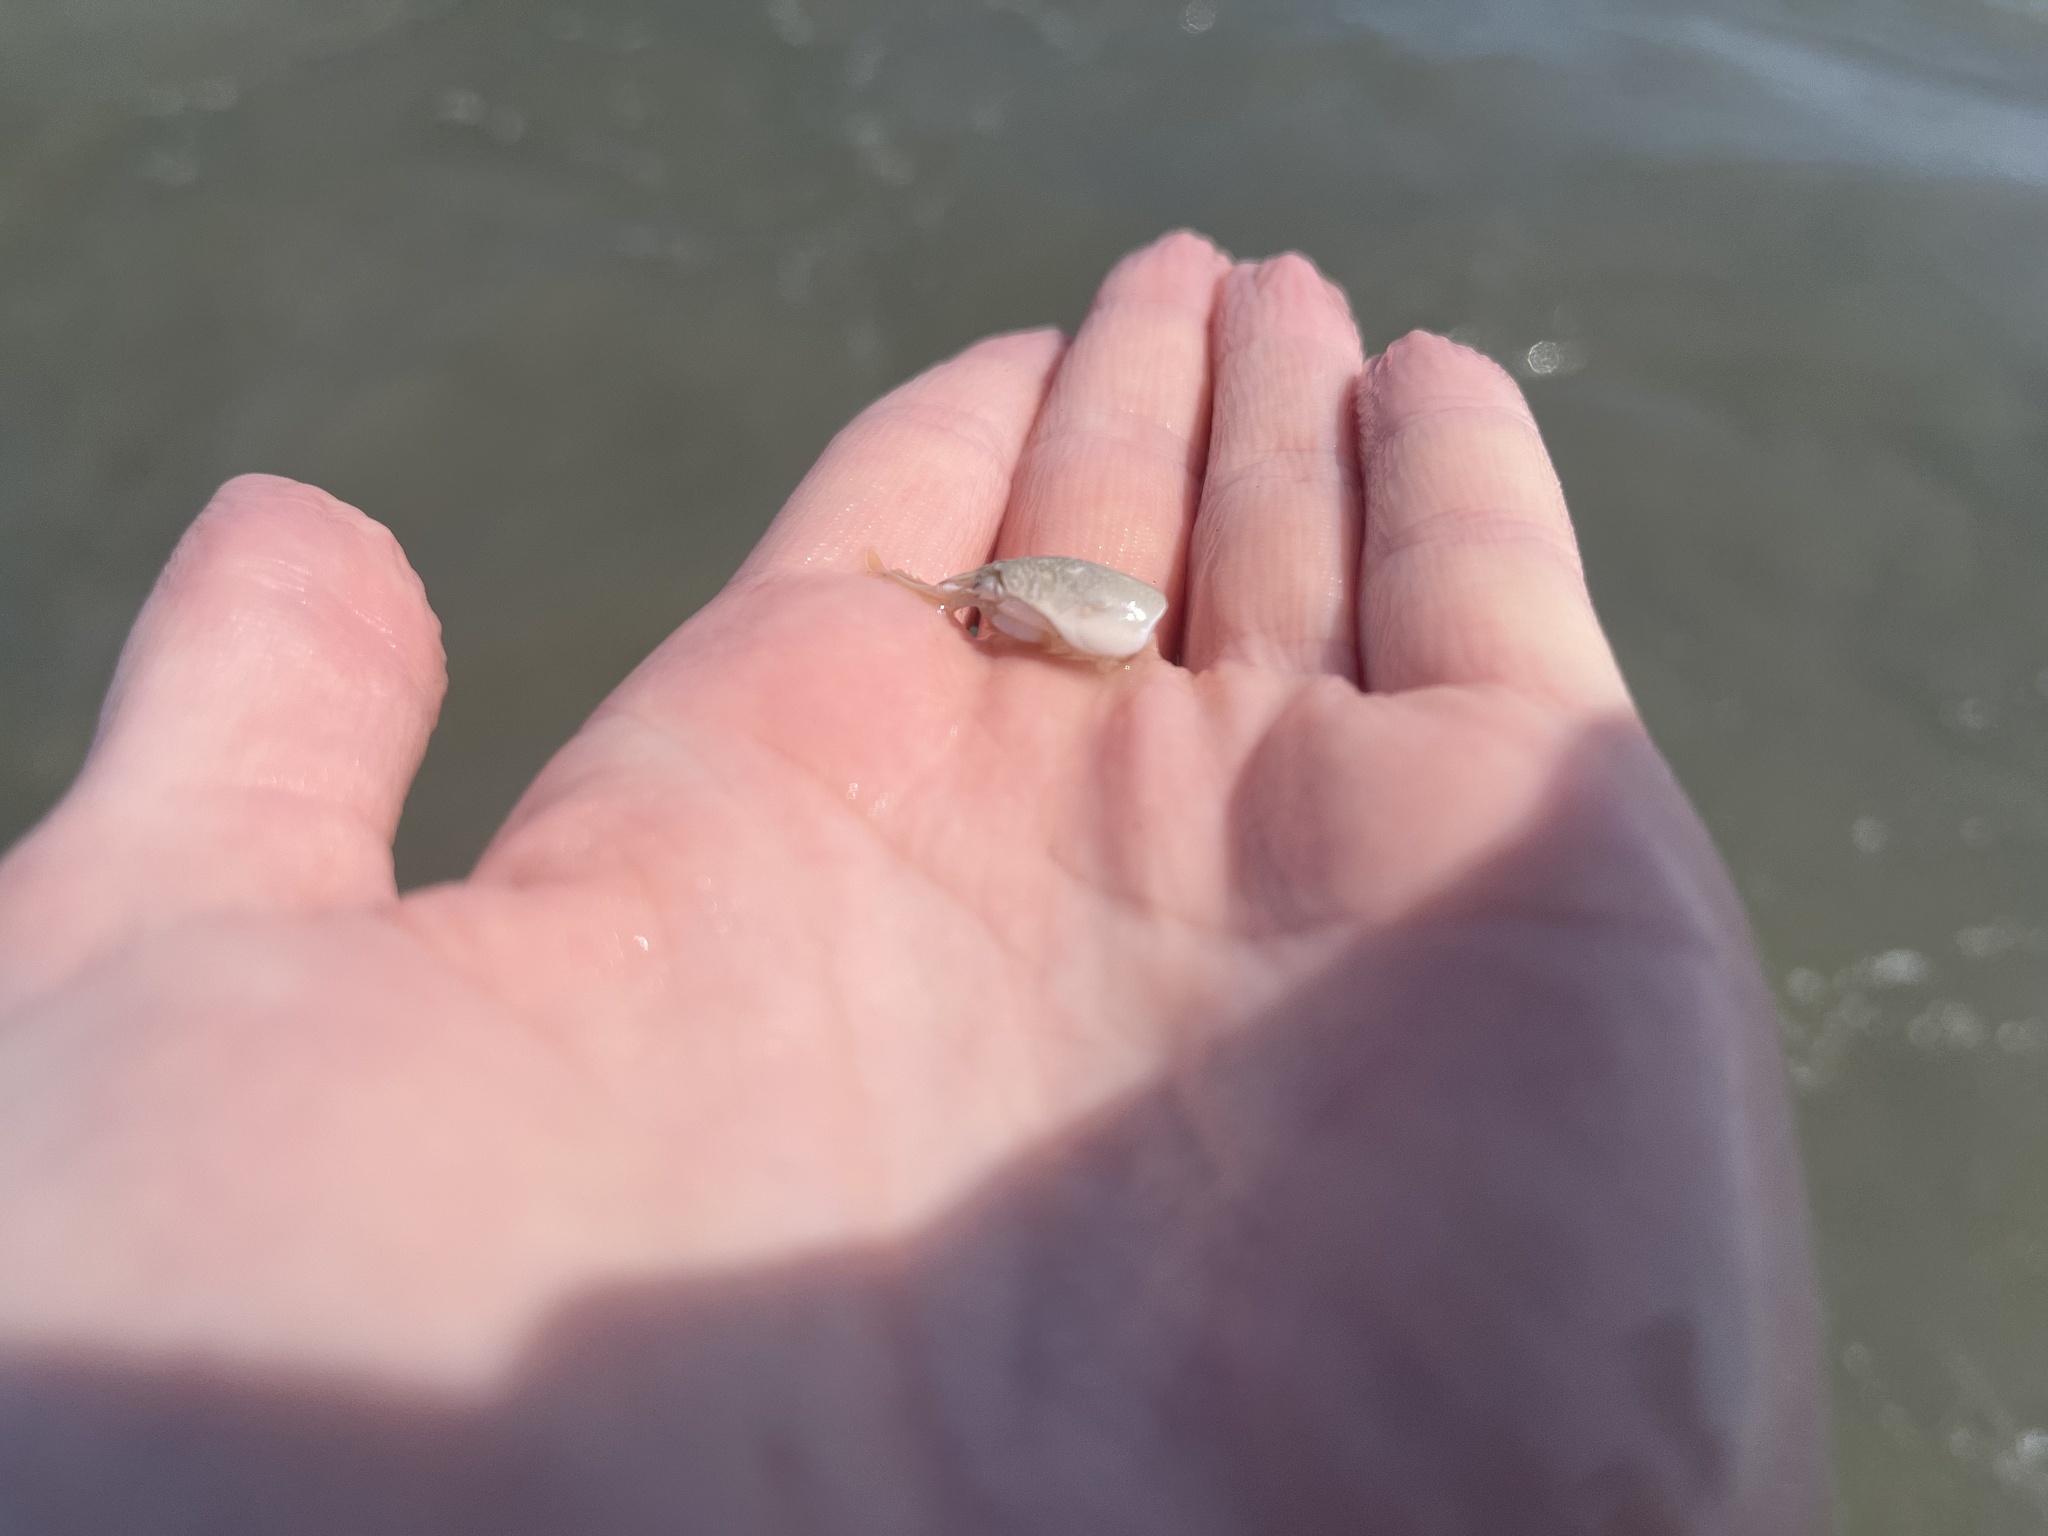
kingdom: Animalia
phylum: Arthropoda
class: Malacostraca
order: Decapoda
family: Hippidae
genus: Emerita
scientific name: Emerita talpoida
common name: Atlantic sand crab
